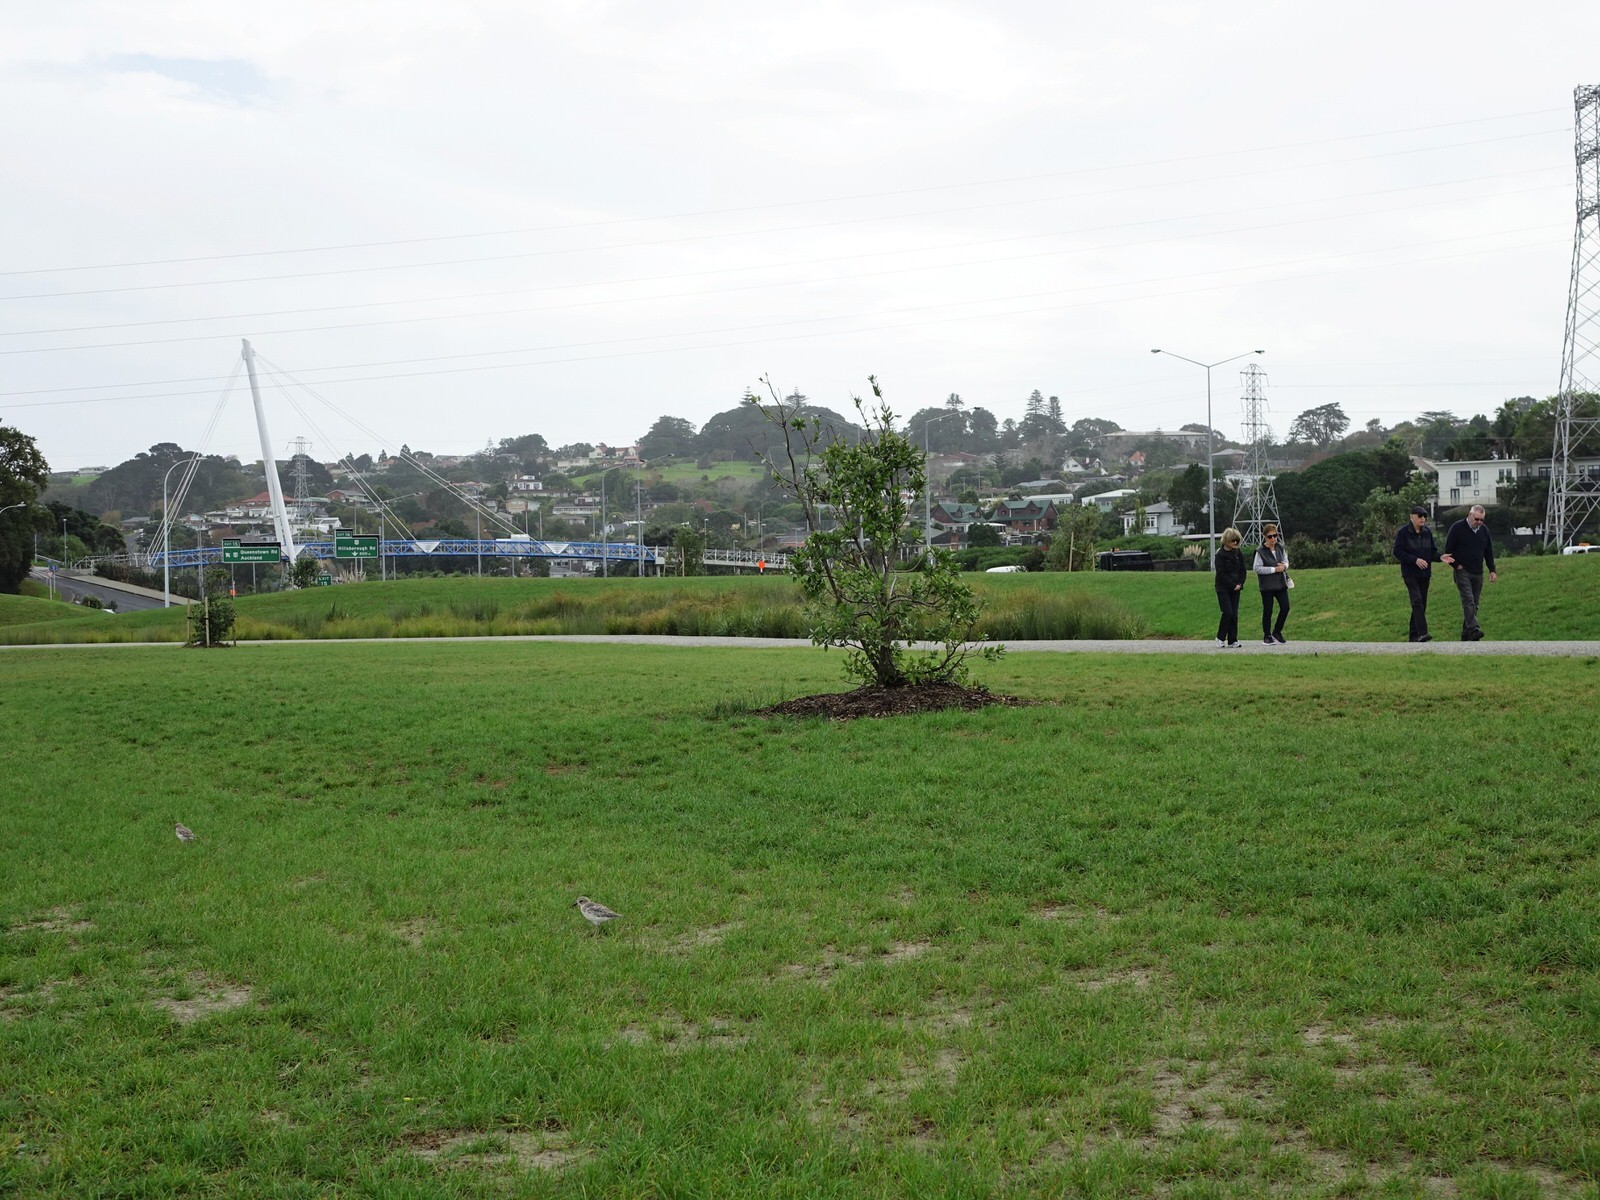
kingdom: Animalia
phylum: Chordata
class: Aves
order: Charadriiformes
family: Charadriidae
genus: Anarhynchus
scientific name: Anarhynchus
